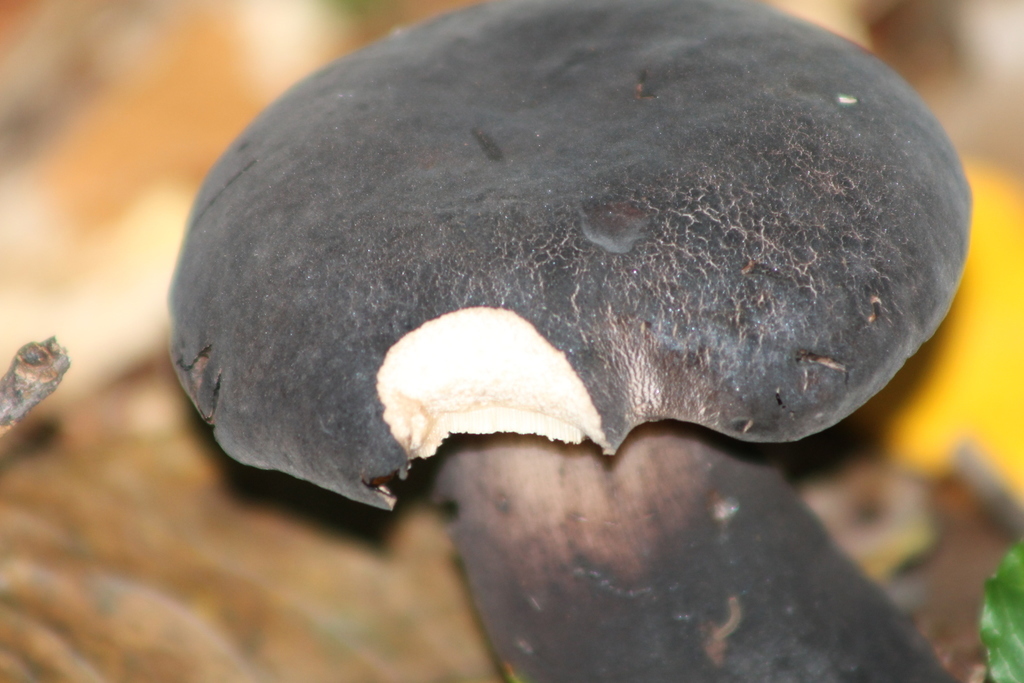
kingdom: Fungi
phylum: Basidiomycota
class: Agaricomycetes
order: Boletales
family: Boletaceae
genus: Tylopilus
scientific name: Tylopilus alboater
